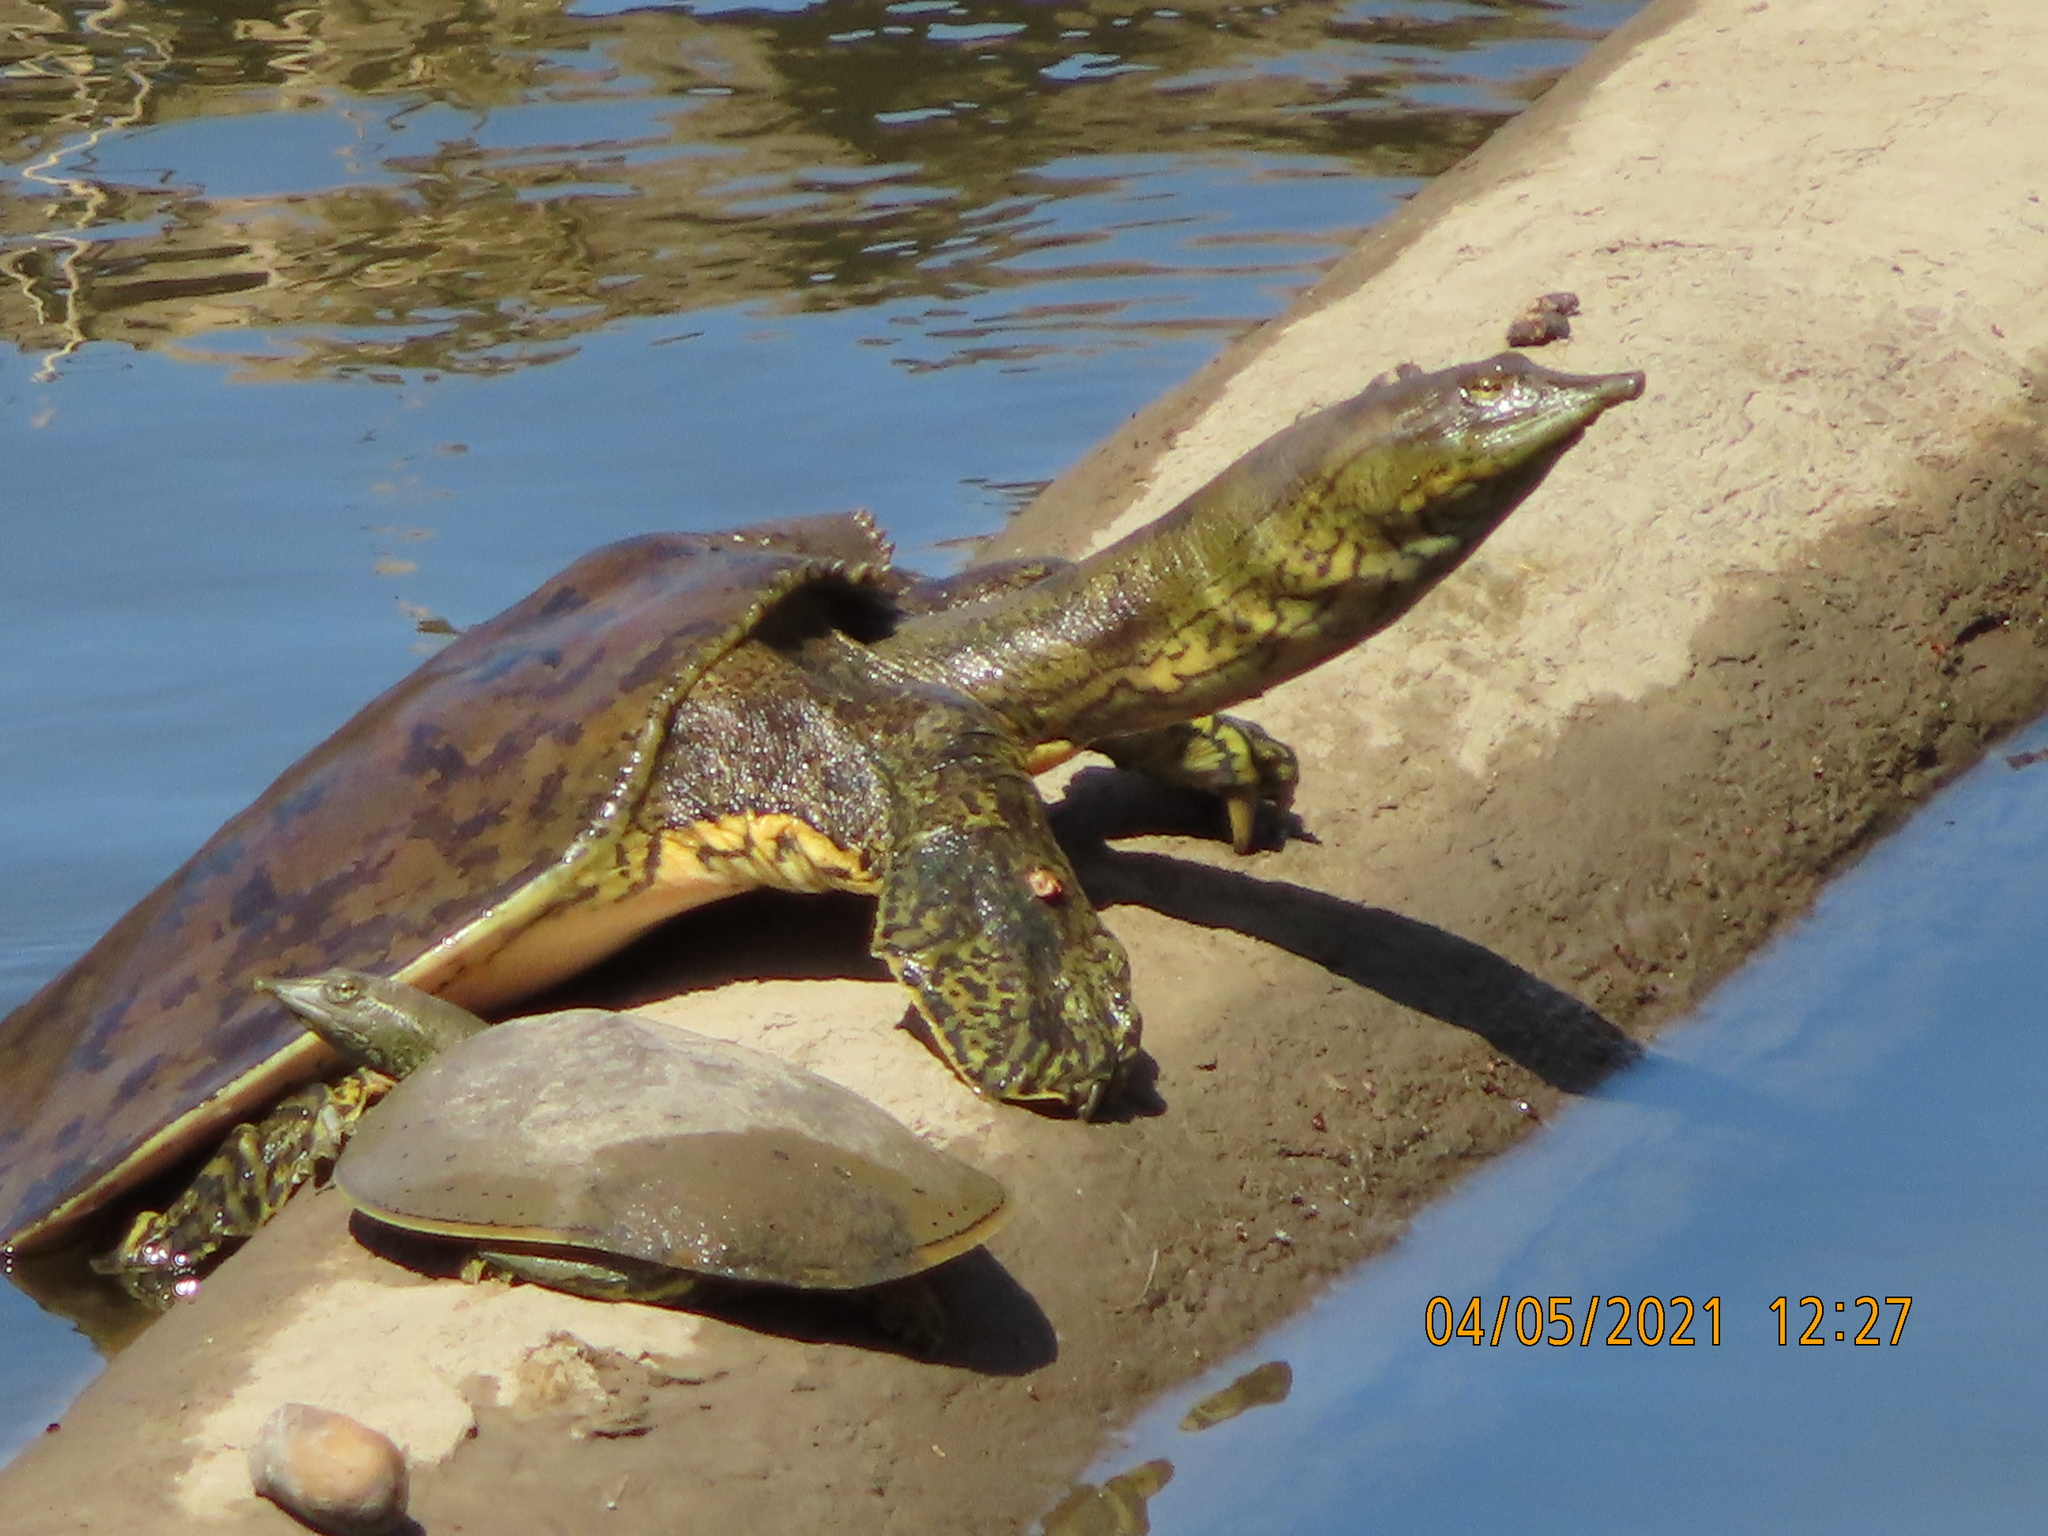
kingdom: Animalia
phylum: Chordata
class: Testudines
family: Trionychidae
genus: Apalone
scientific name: Apalone spinifera
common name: Spiny softshell turtle
